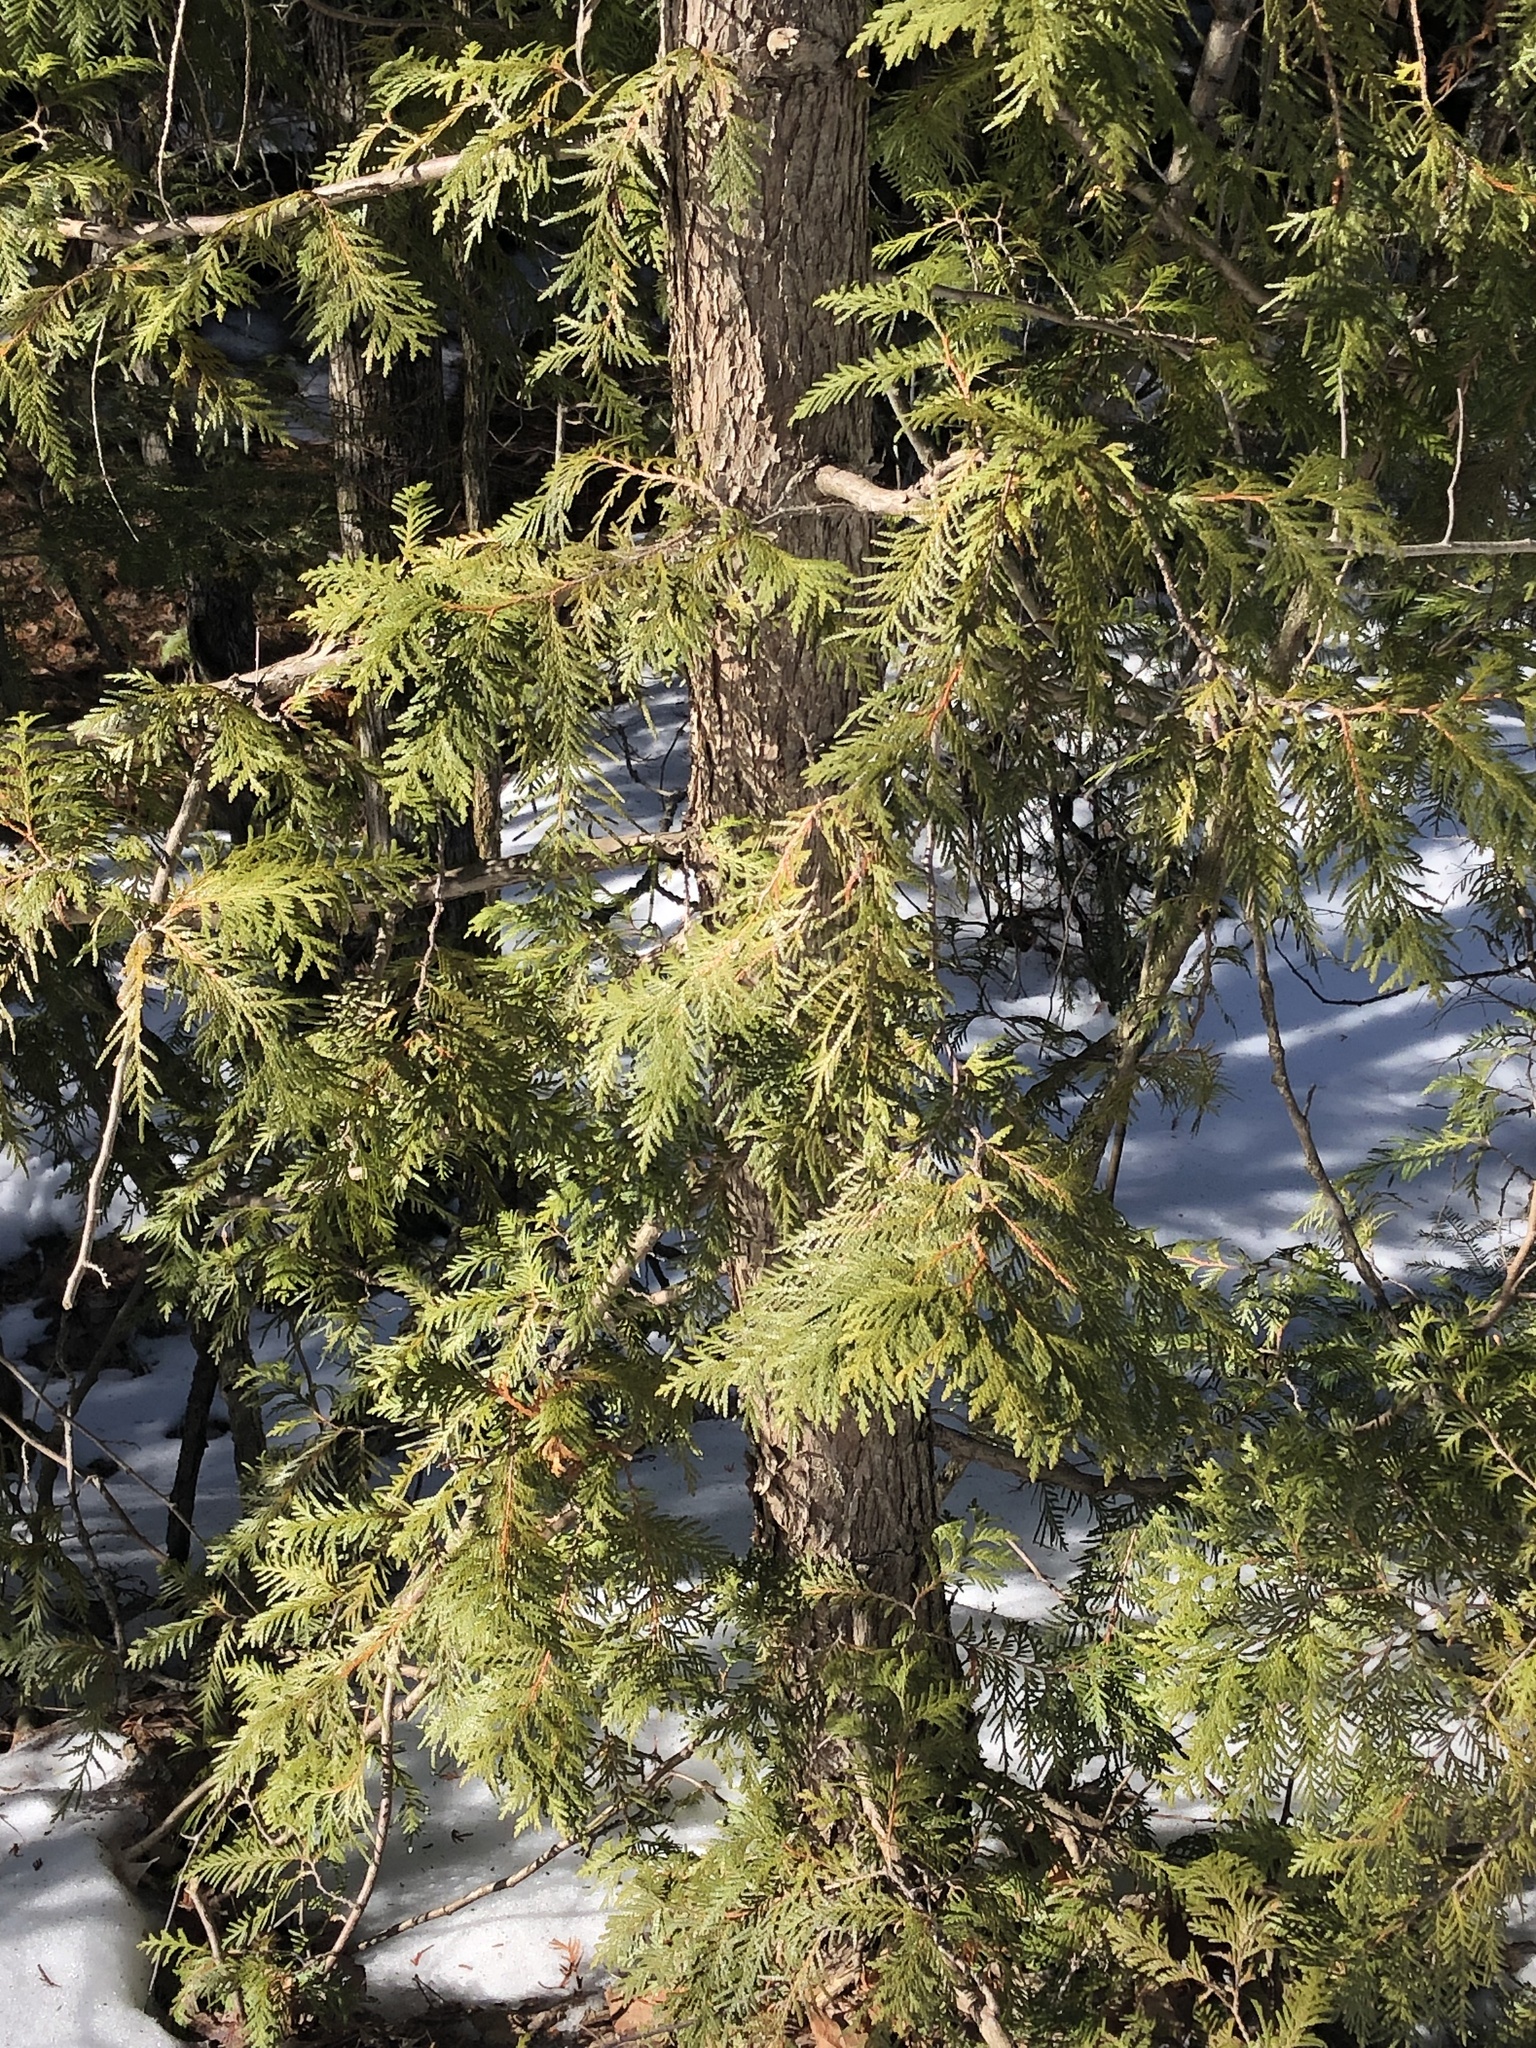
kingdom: Plantae
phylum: Tracheophyta
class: Pinopsida
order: Pinales
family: Cupressaceae
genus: Thuja
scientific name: Thuja occidentalis
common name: Northern white-cedar
